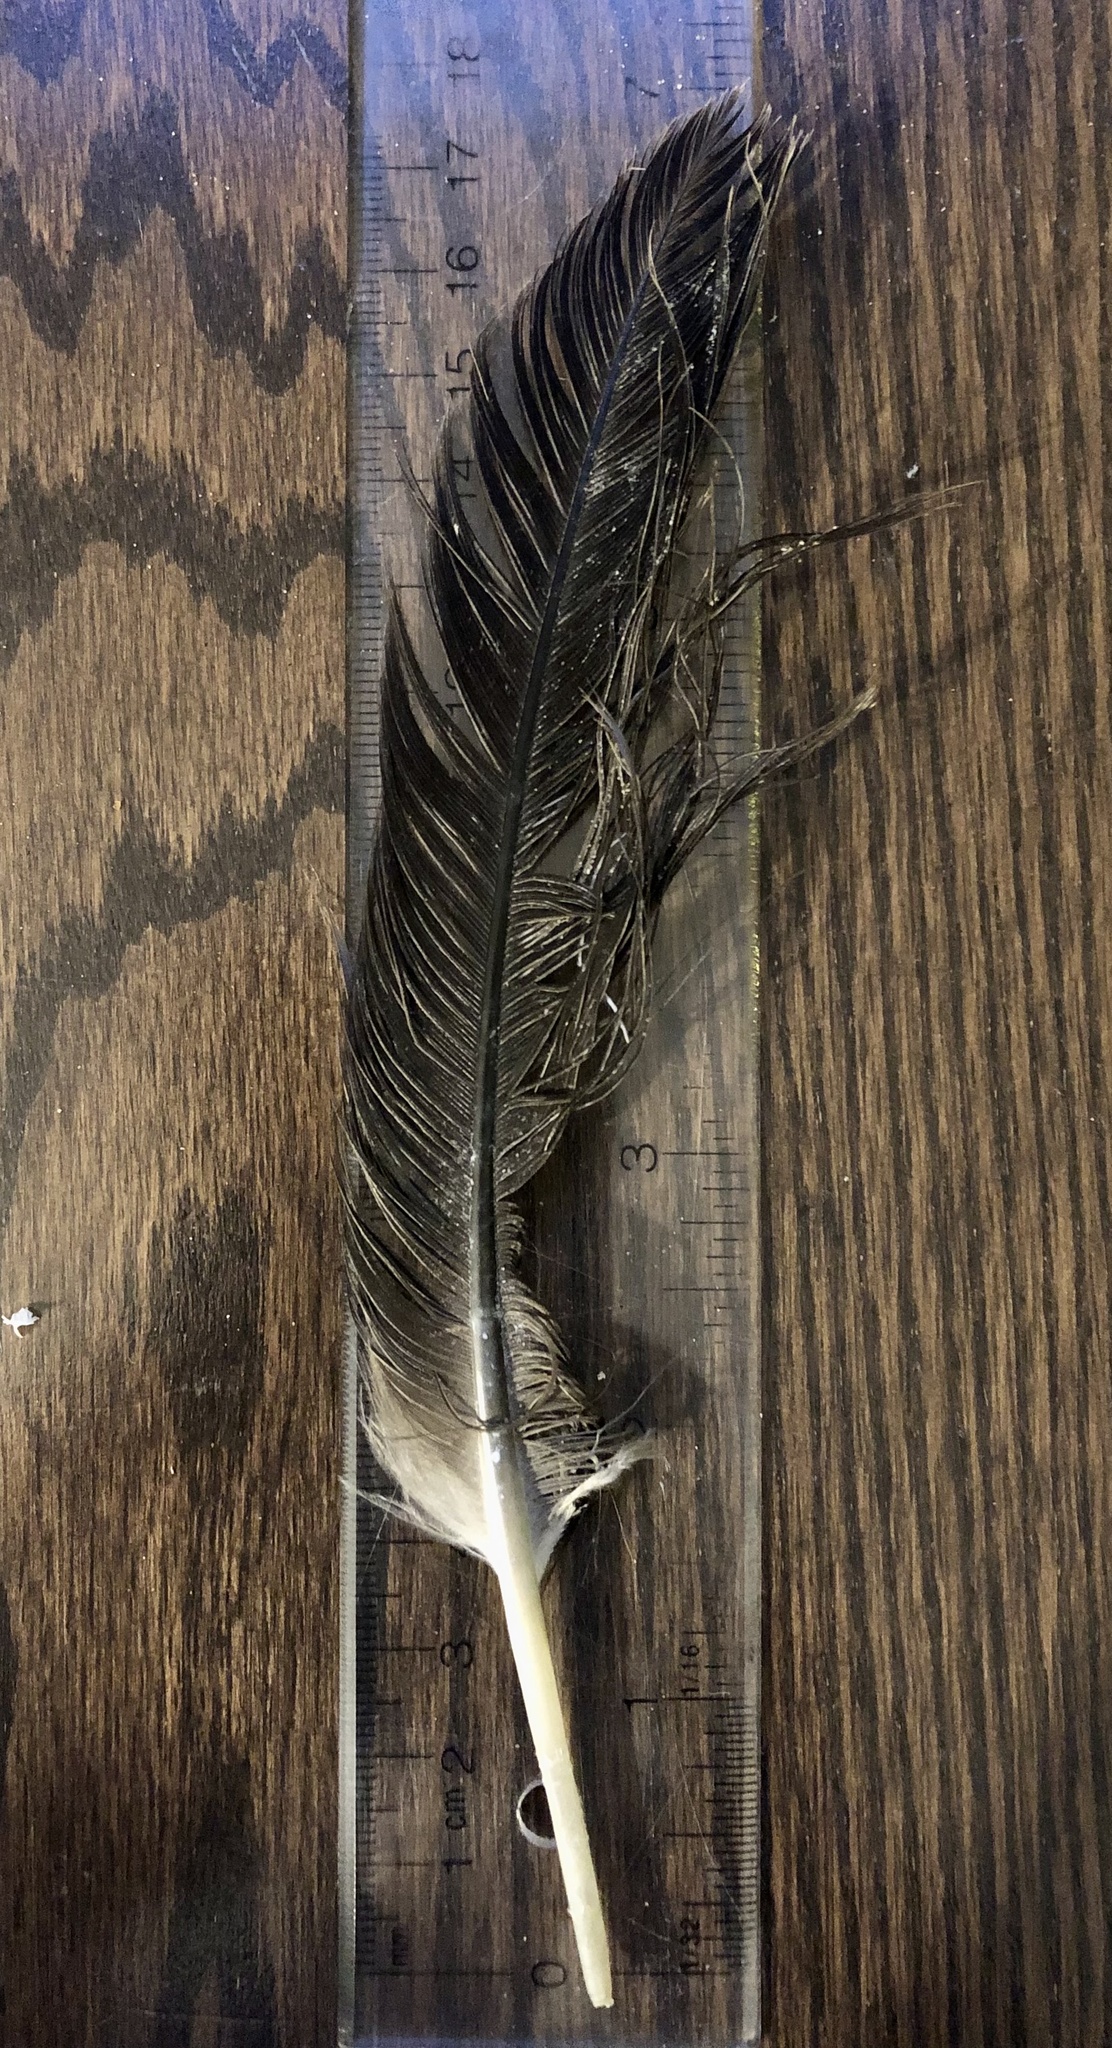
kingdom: Animalia
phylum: Chordata
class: Aves
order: Anseriformes
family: Anatidae
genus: Branta
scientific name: Branta canadensis
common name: Canada goose
